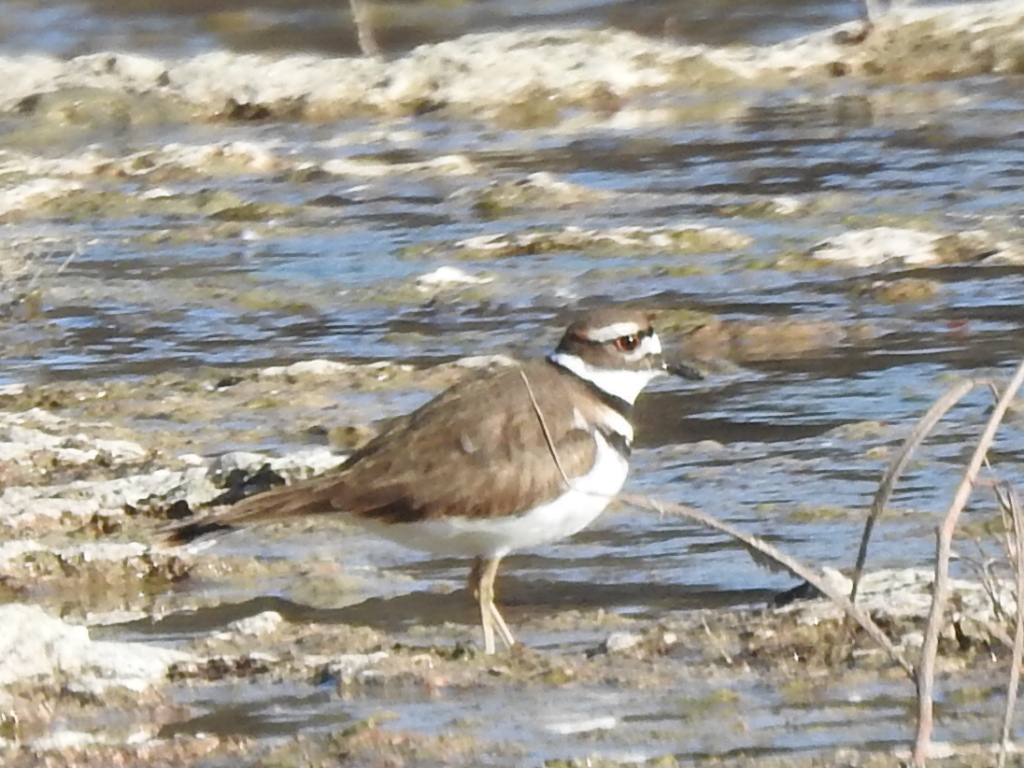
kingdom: Animalia
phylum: Chordata
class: Aves
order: Charadriiformes
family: Charadriidae
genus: Charadrius
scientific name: Charadrius vociferus
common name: Killdeer
